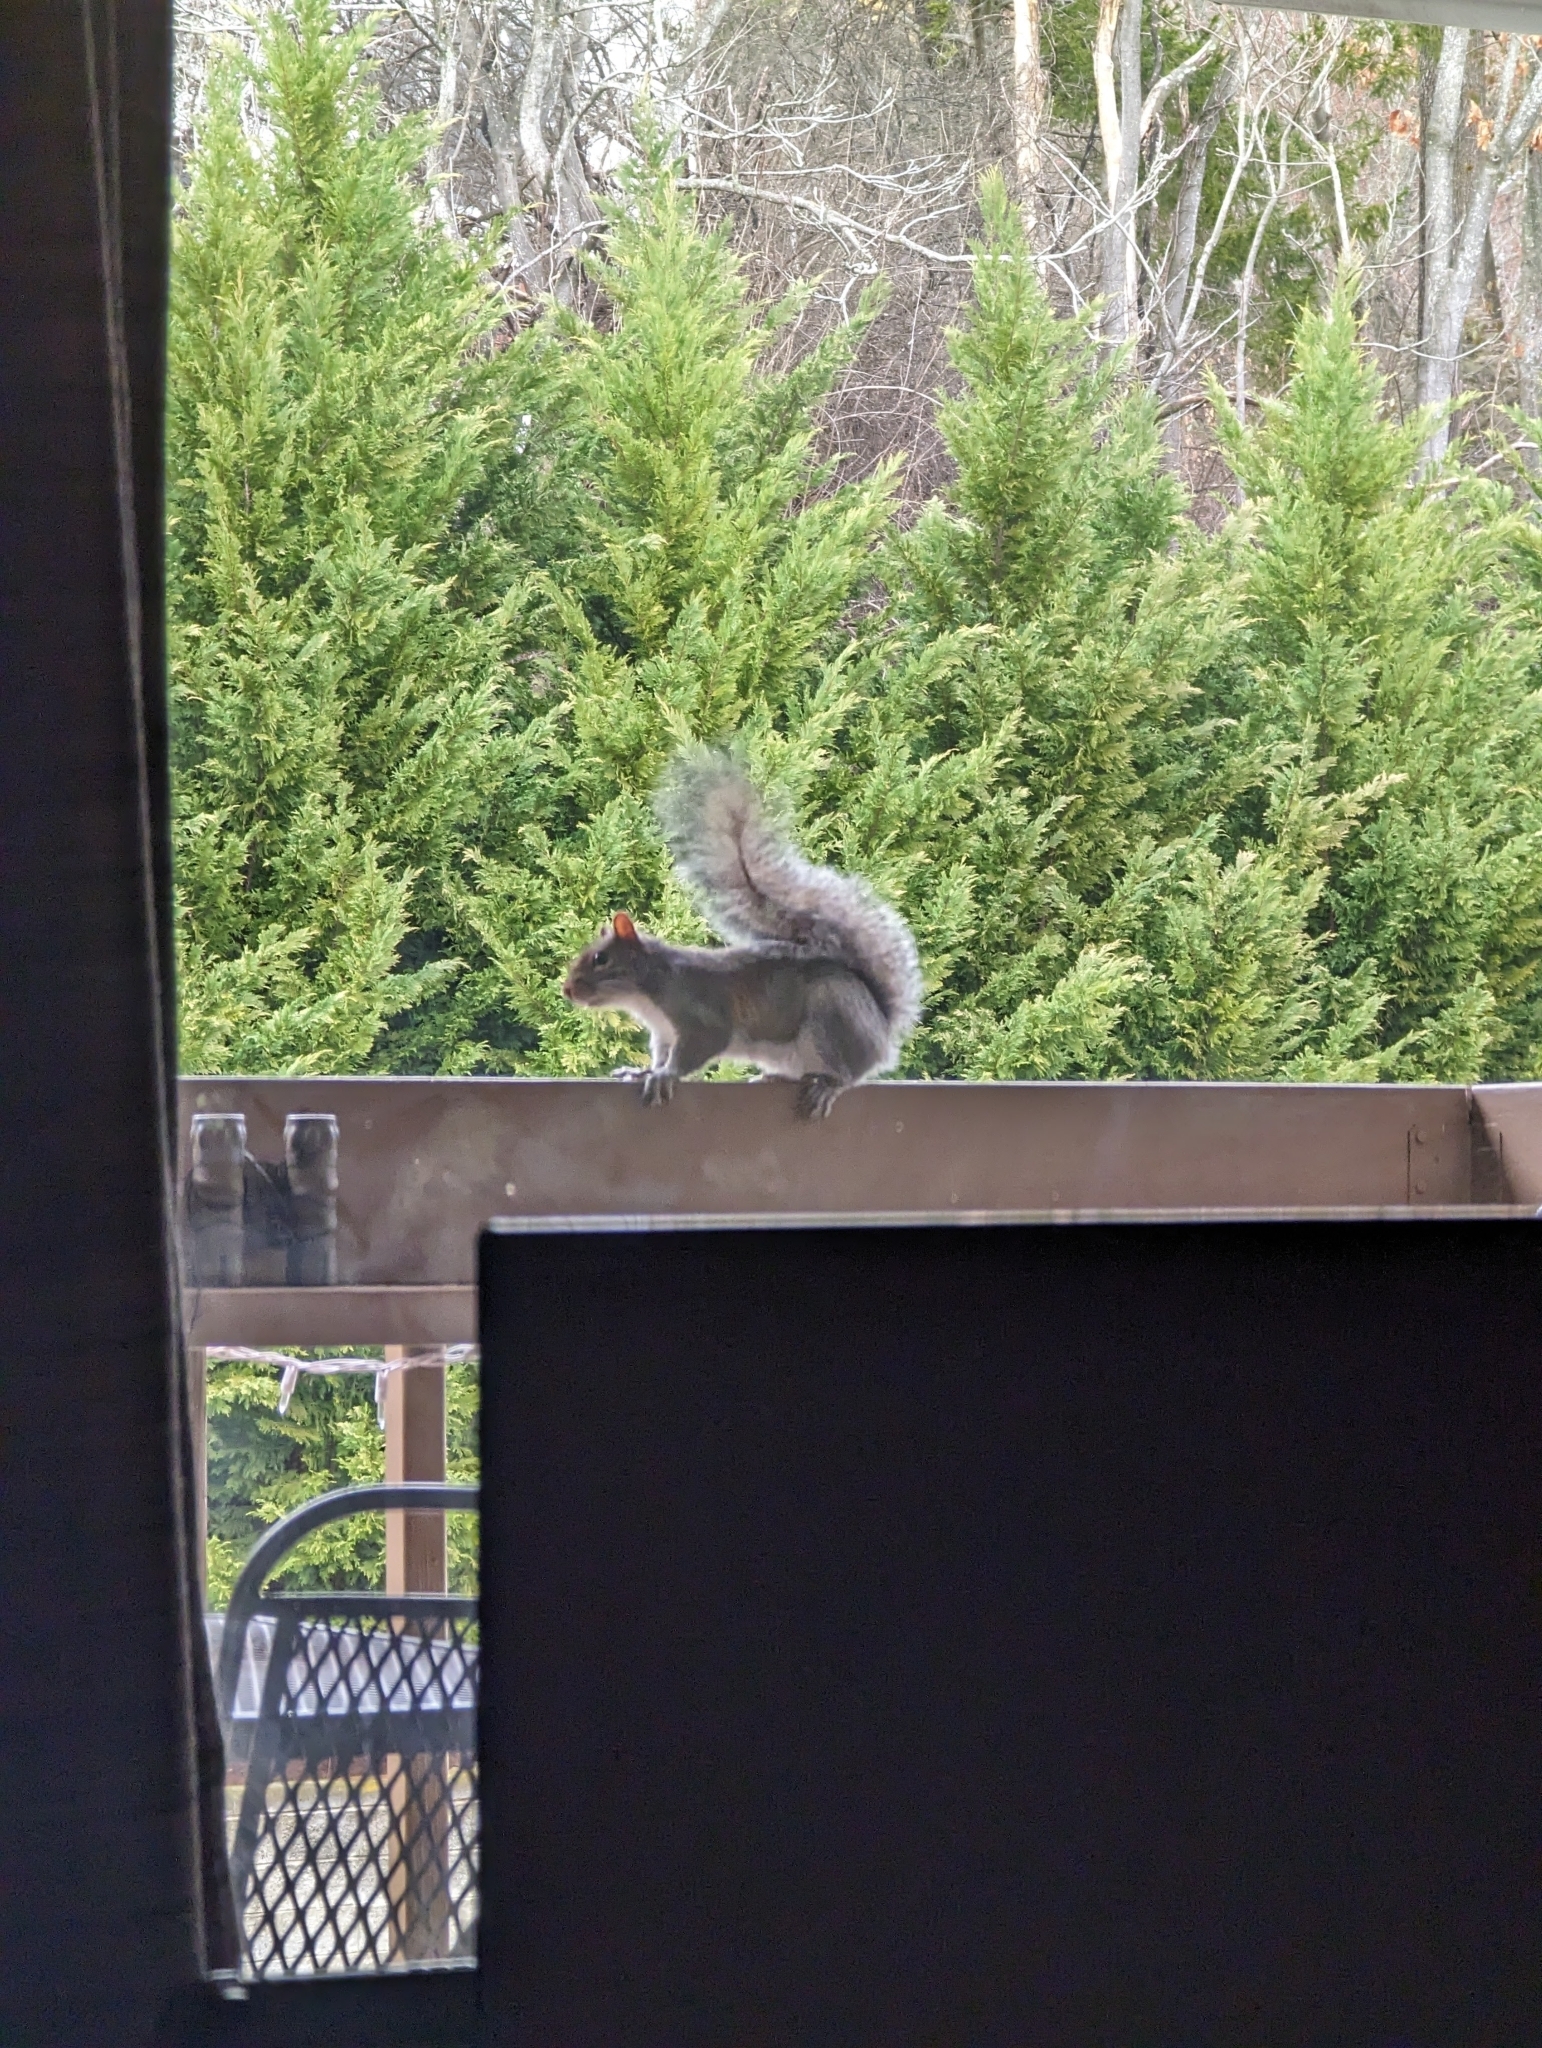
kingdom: Animalia
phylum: Chordata
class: Mammalia
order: Rodentia
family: Sciuridae
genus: Sciurus
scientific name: Sciurus carolinensis
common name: Eastern gray squirrel
